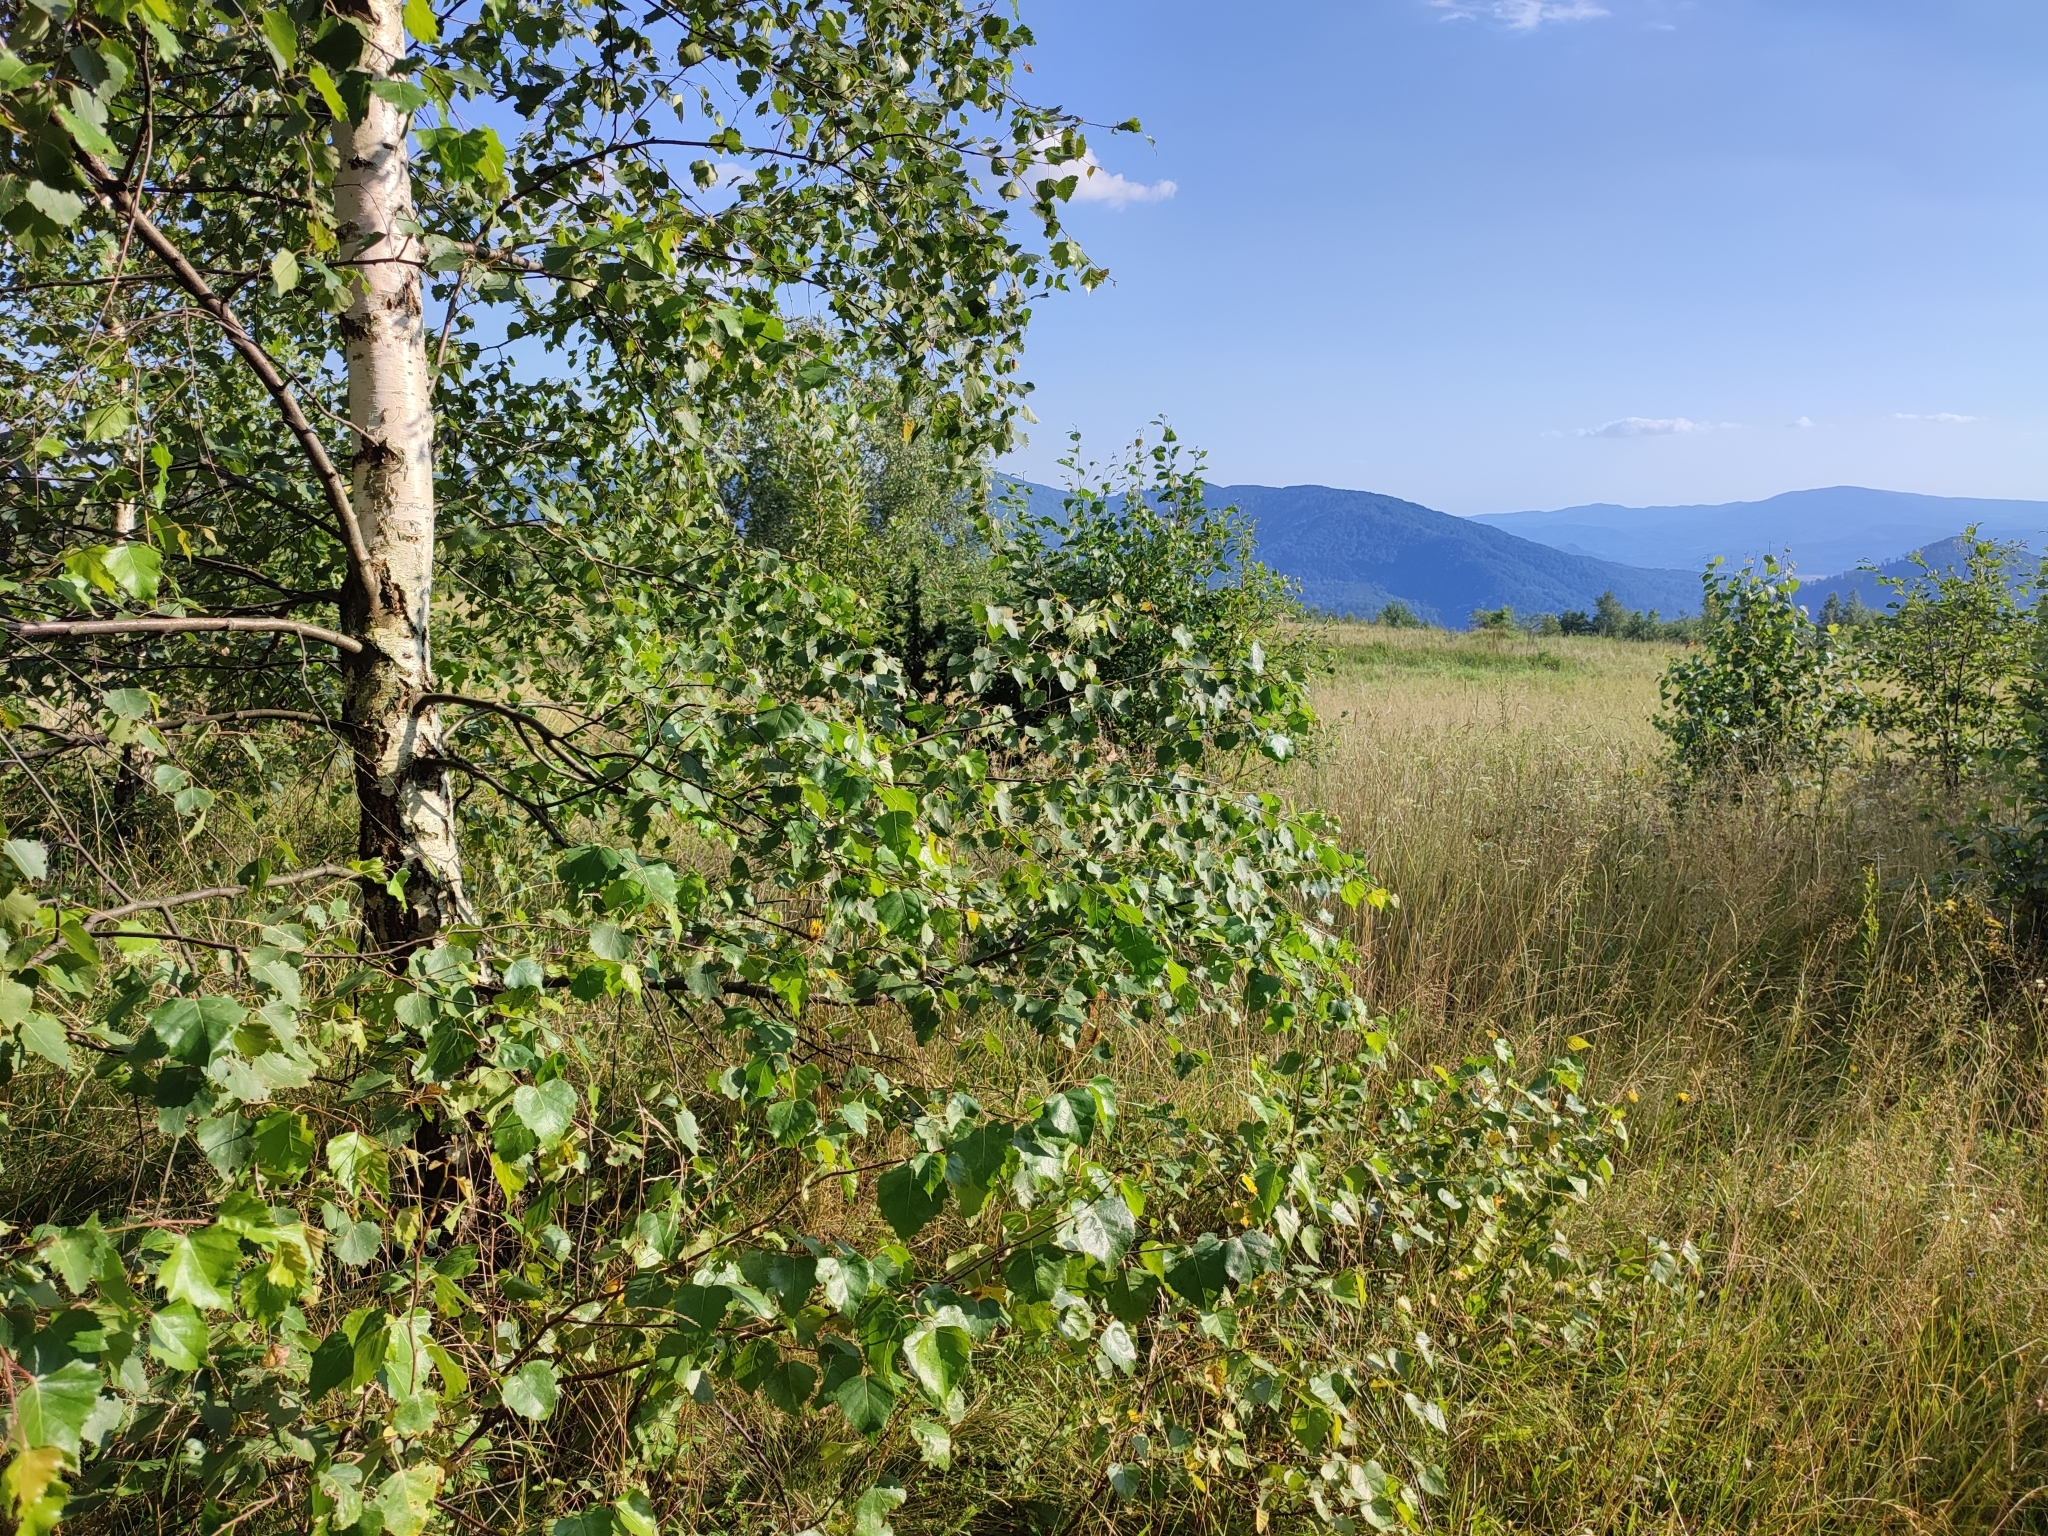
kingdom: Plantae
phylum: Tracheophyta
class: Magnoliopsida
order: Fagales
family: Betulaceae
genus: Betula
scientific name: Betula pendula
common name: Silver birch
